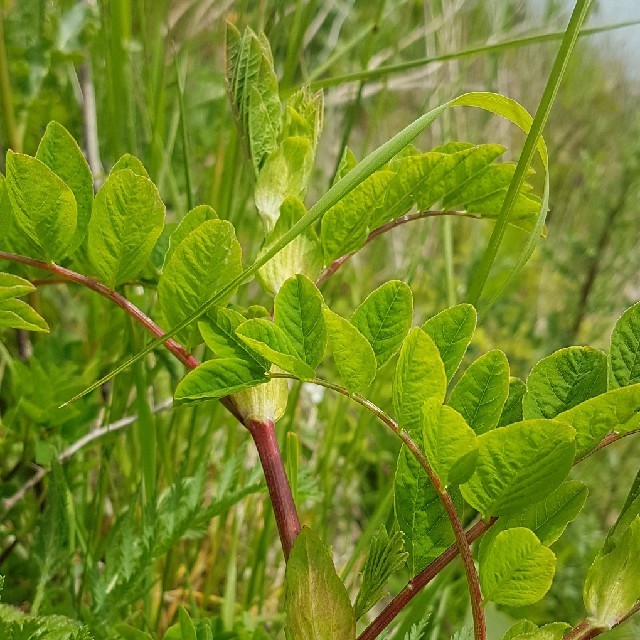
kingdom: Plantae
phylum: Tracheophyta
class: Magnoliopsida
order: Fabales
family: Fabaceae
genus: Astragalus
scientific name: Astragalus glycyphyllos
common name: Wild liquorice
